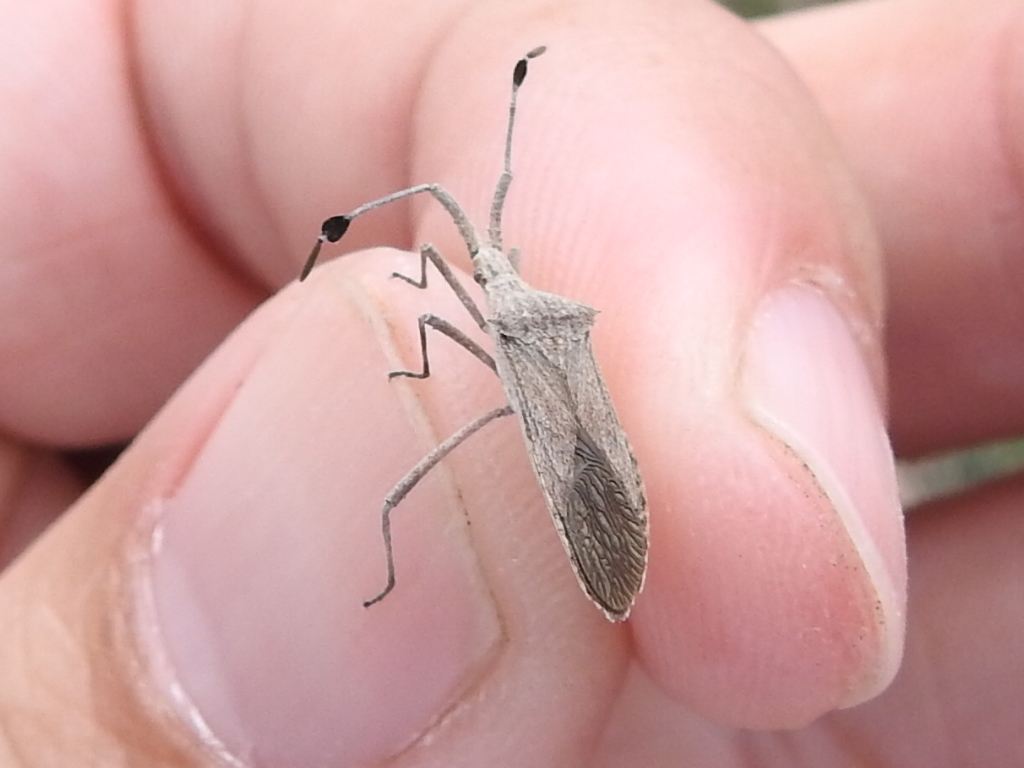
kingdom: Animalia
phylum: Arthropoda
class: Insecta
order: Hemiptera
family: Coreidae
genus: Chariesterus
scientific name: Chariesterus antennator
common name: Flat horned coreid
